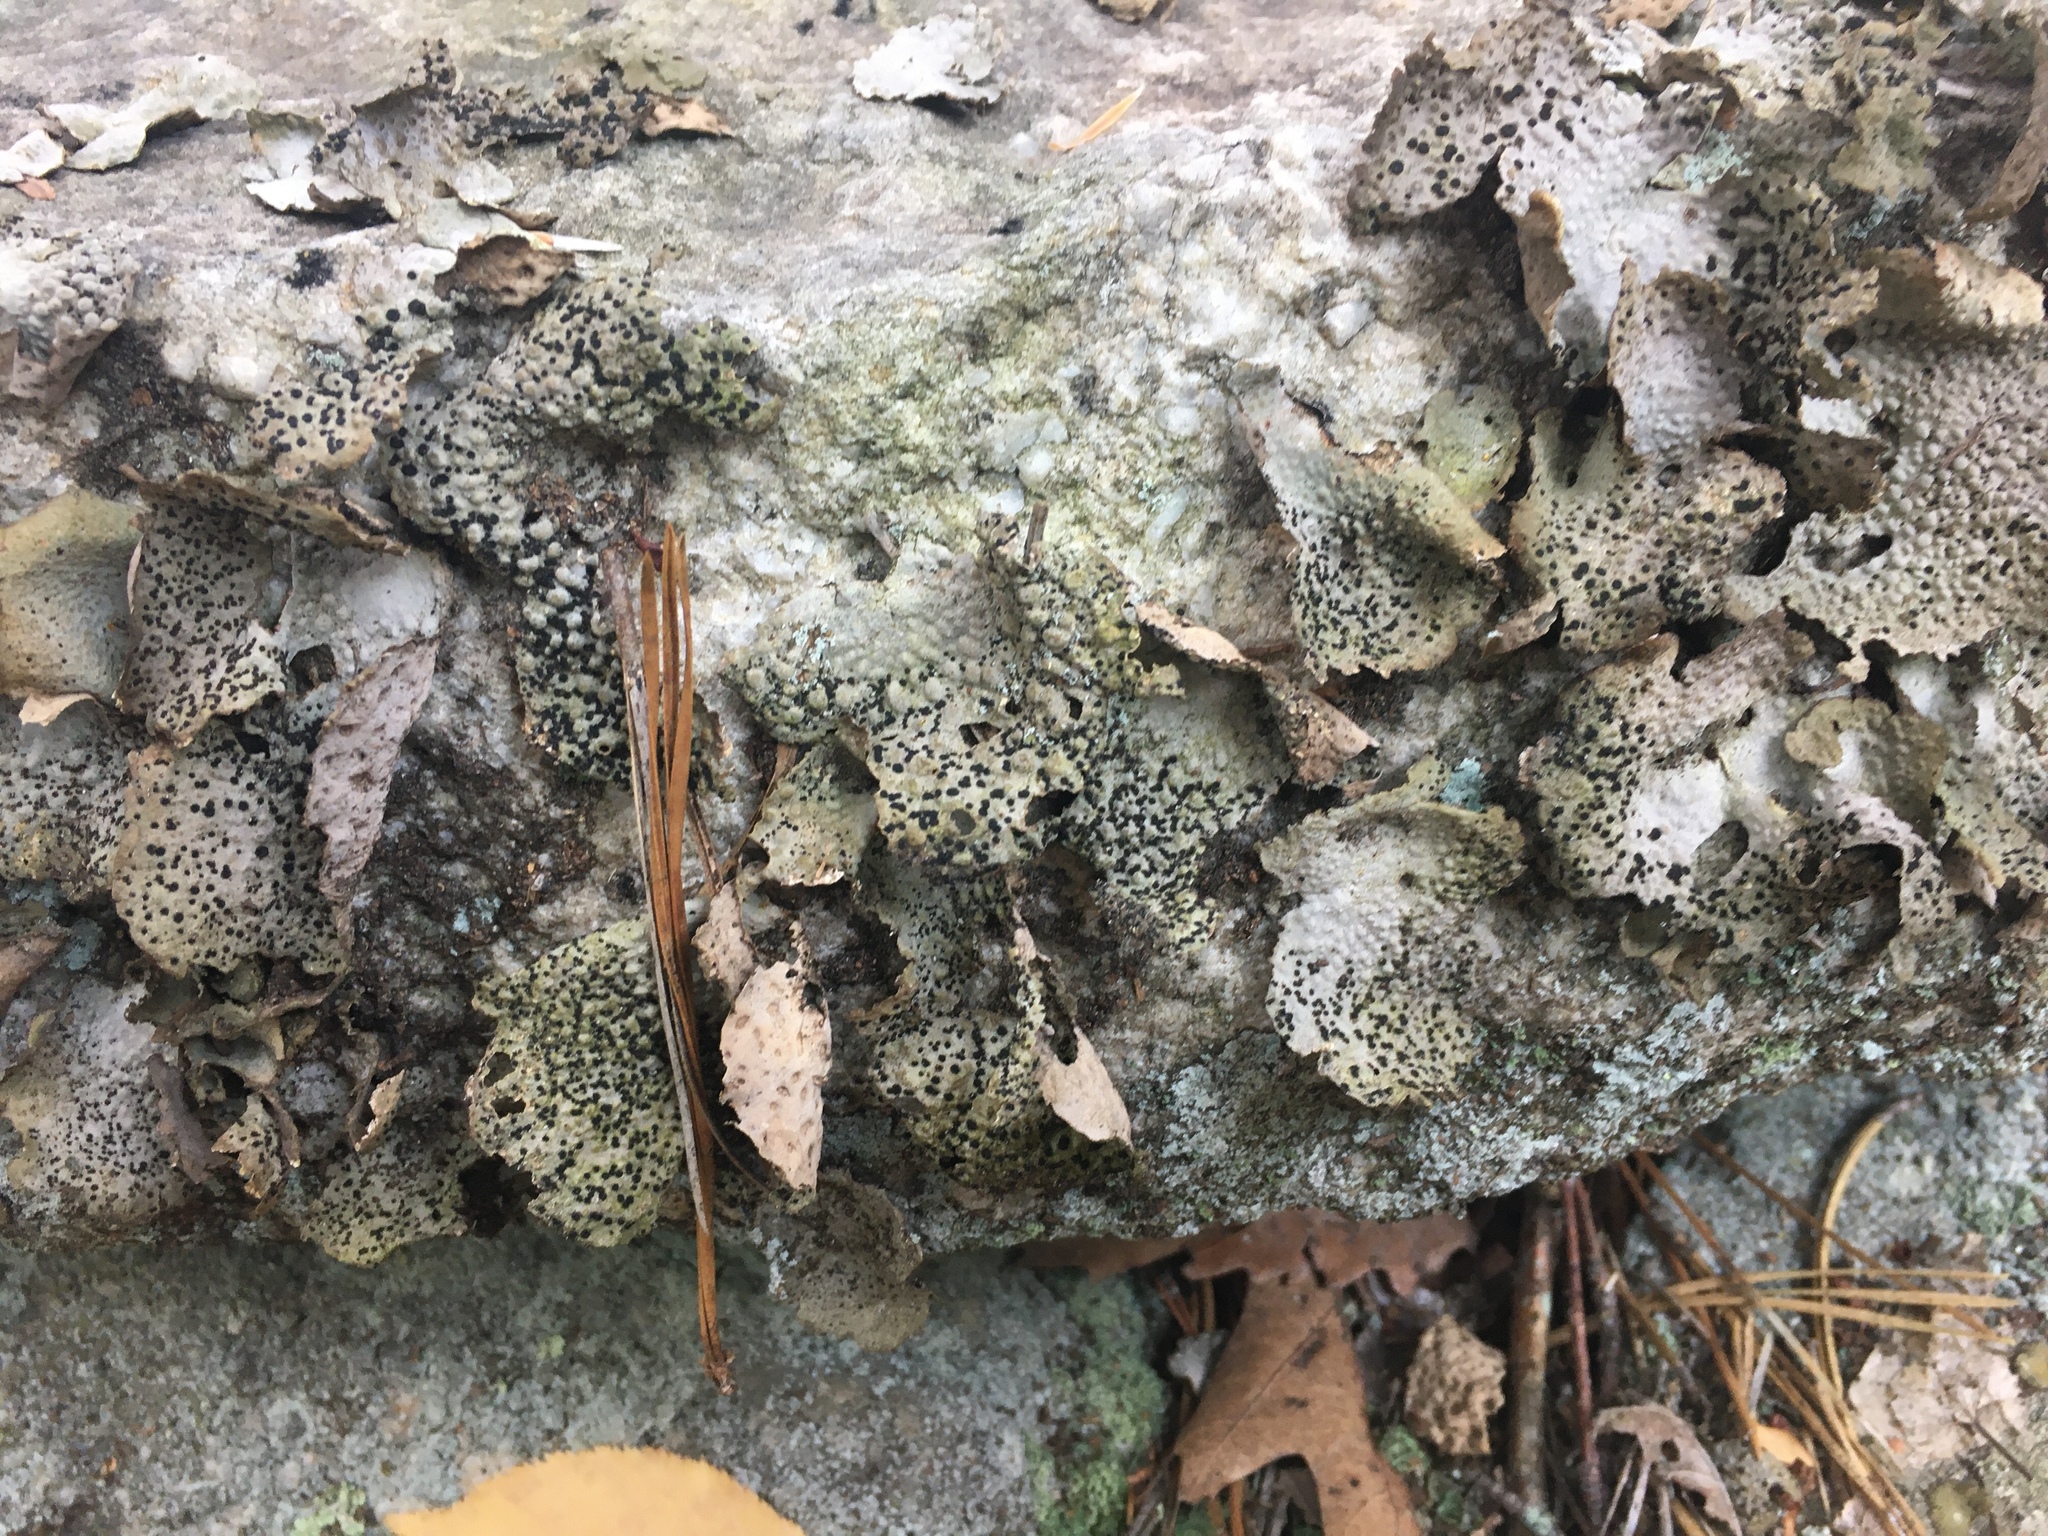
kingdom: Fungi
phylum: Ascomycota
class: Lecanoromycetes
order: Umbilicariales
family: Umbilicariaceae
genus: Lasallia
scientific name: Lasallia papulosa
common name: Common toadskin lichen
